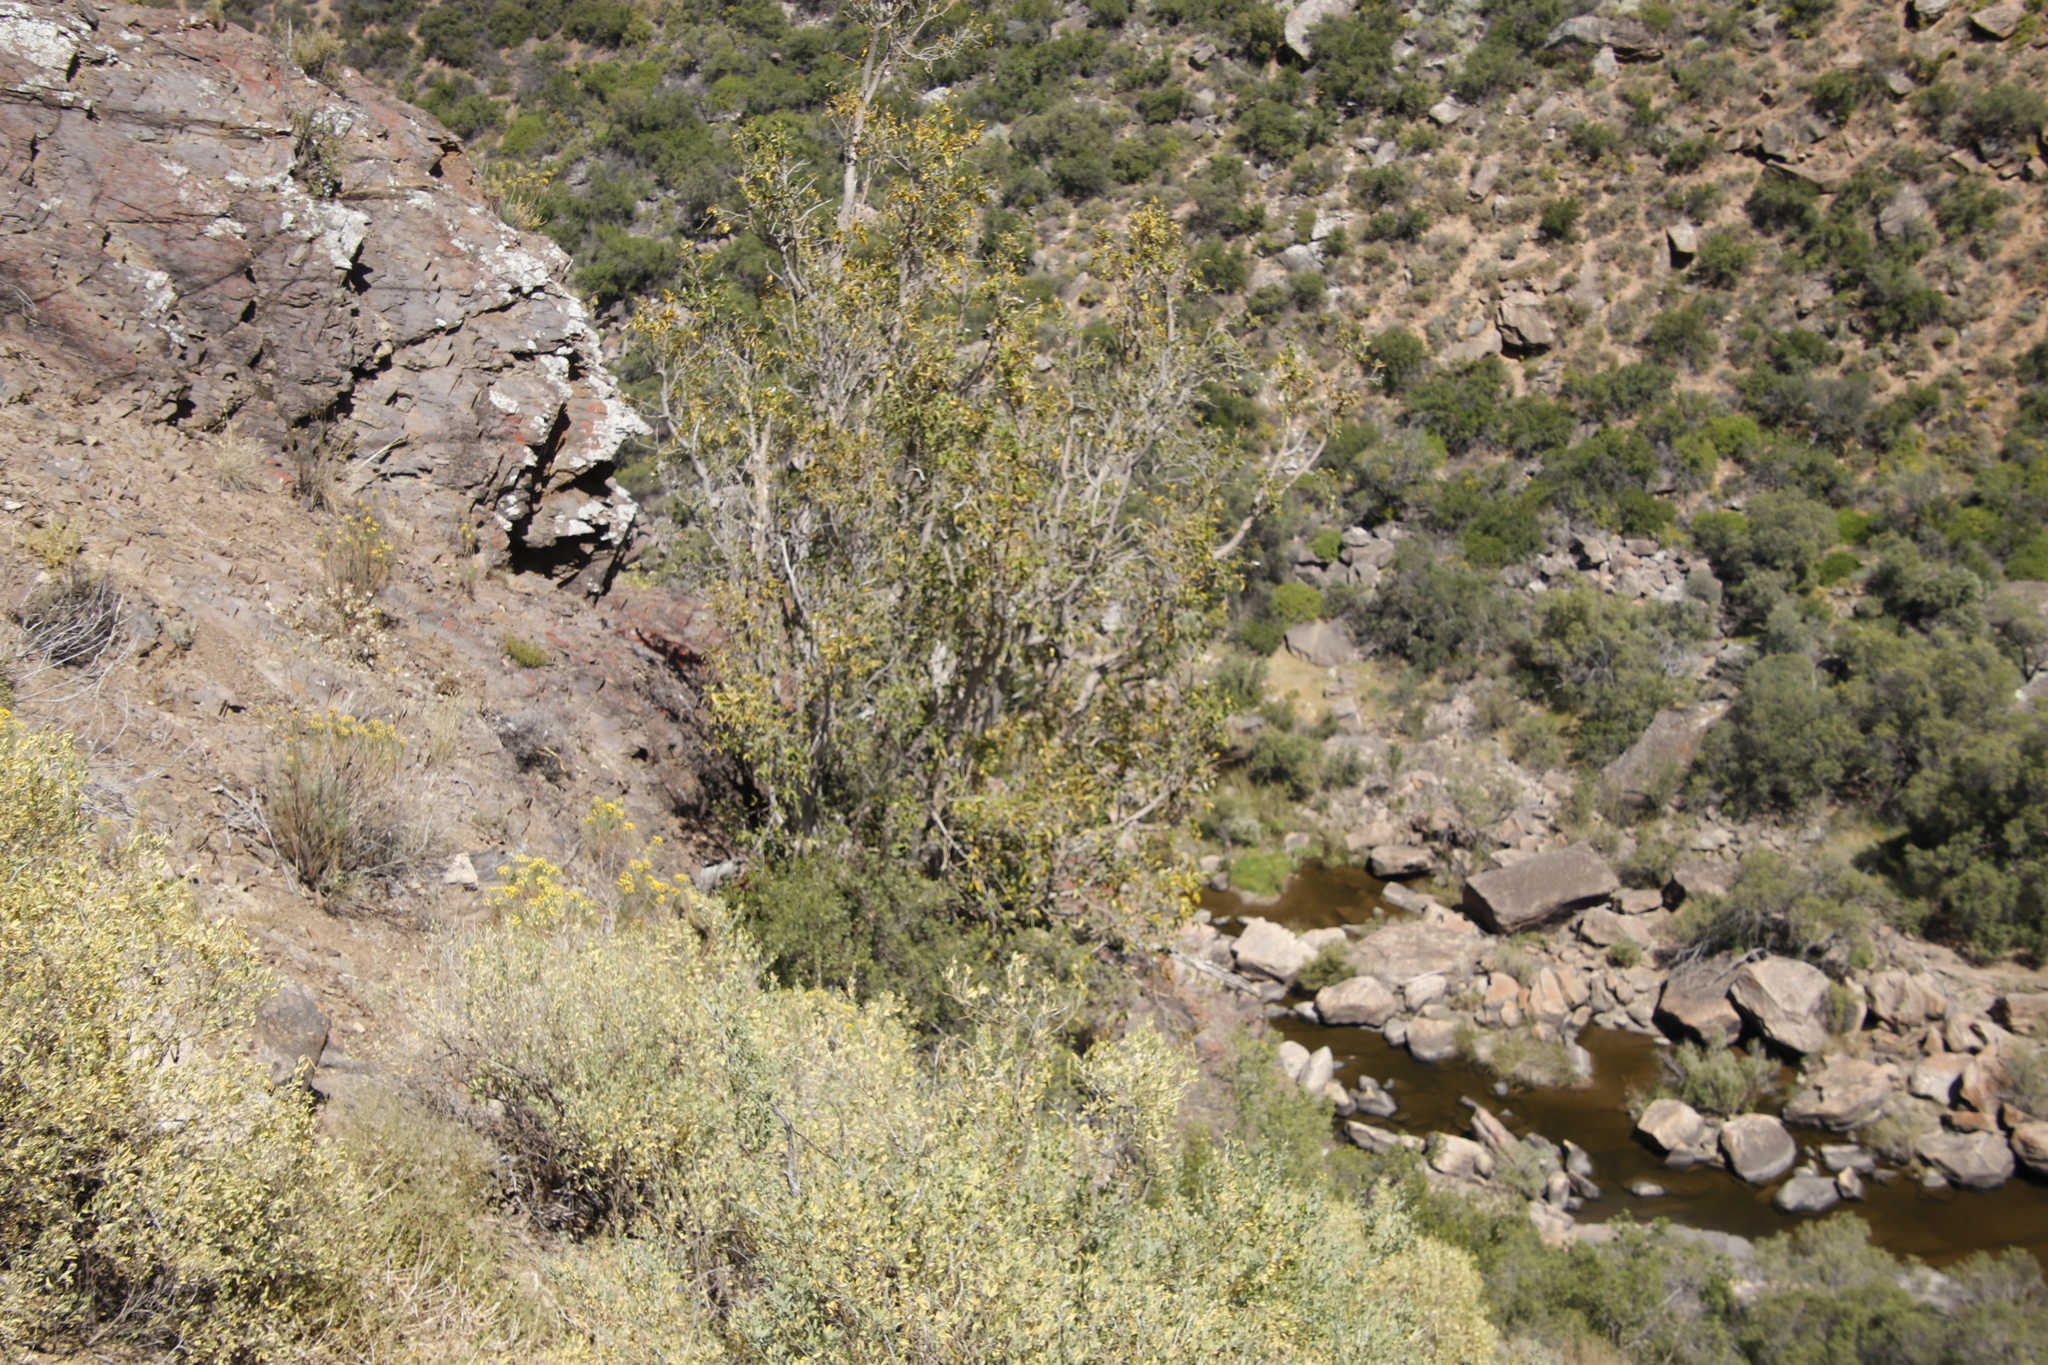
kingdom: Plantae
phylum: Tracheophyta
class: Magnoliopsida
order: Rosales
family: Moraceae
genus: Ficus
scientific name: Ficus cordata
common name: Namaqua rock fig
